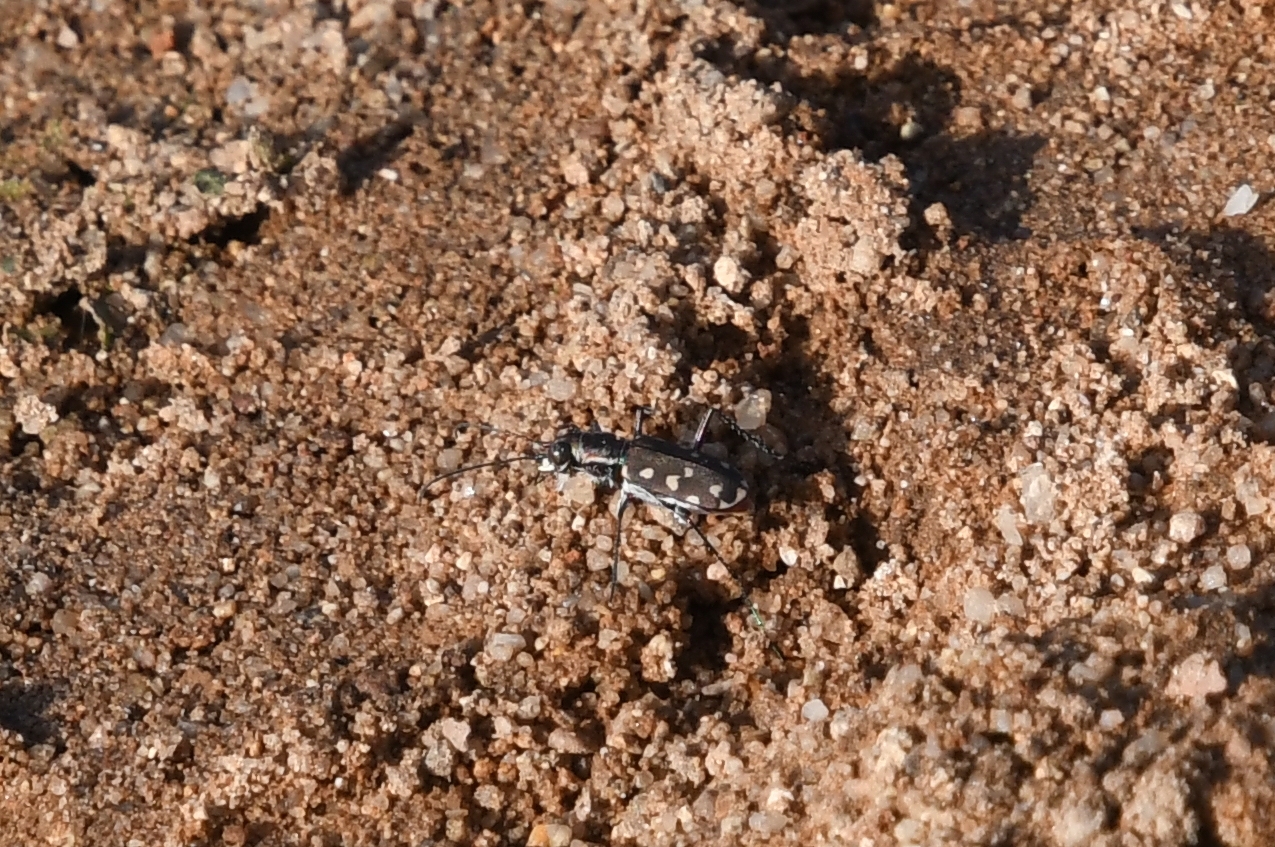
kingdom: Animalia
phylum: Arthropoda
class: Insecta
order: Coleoptera
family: Carabidae
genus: Cicindela
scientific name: Cicindela sedecimpunctata
